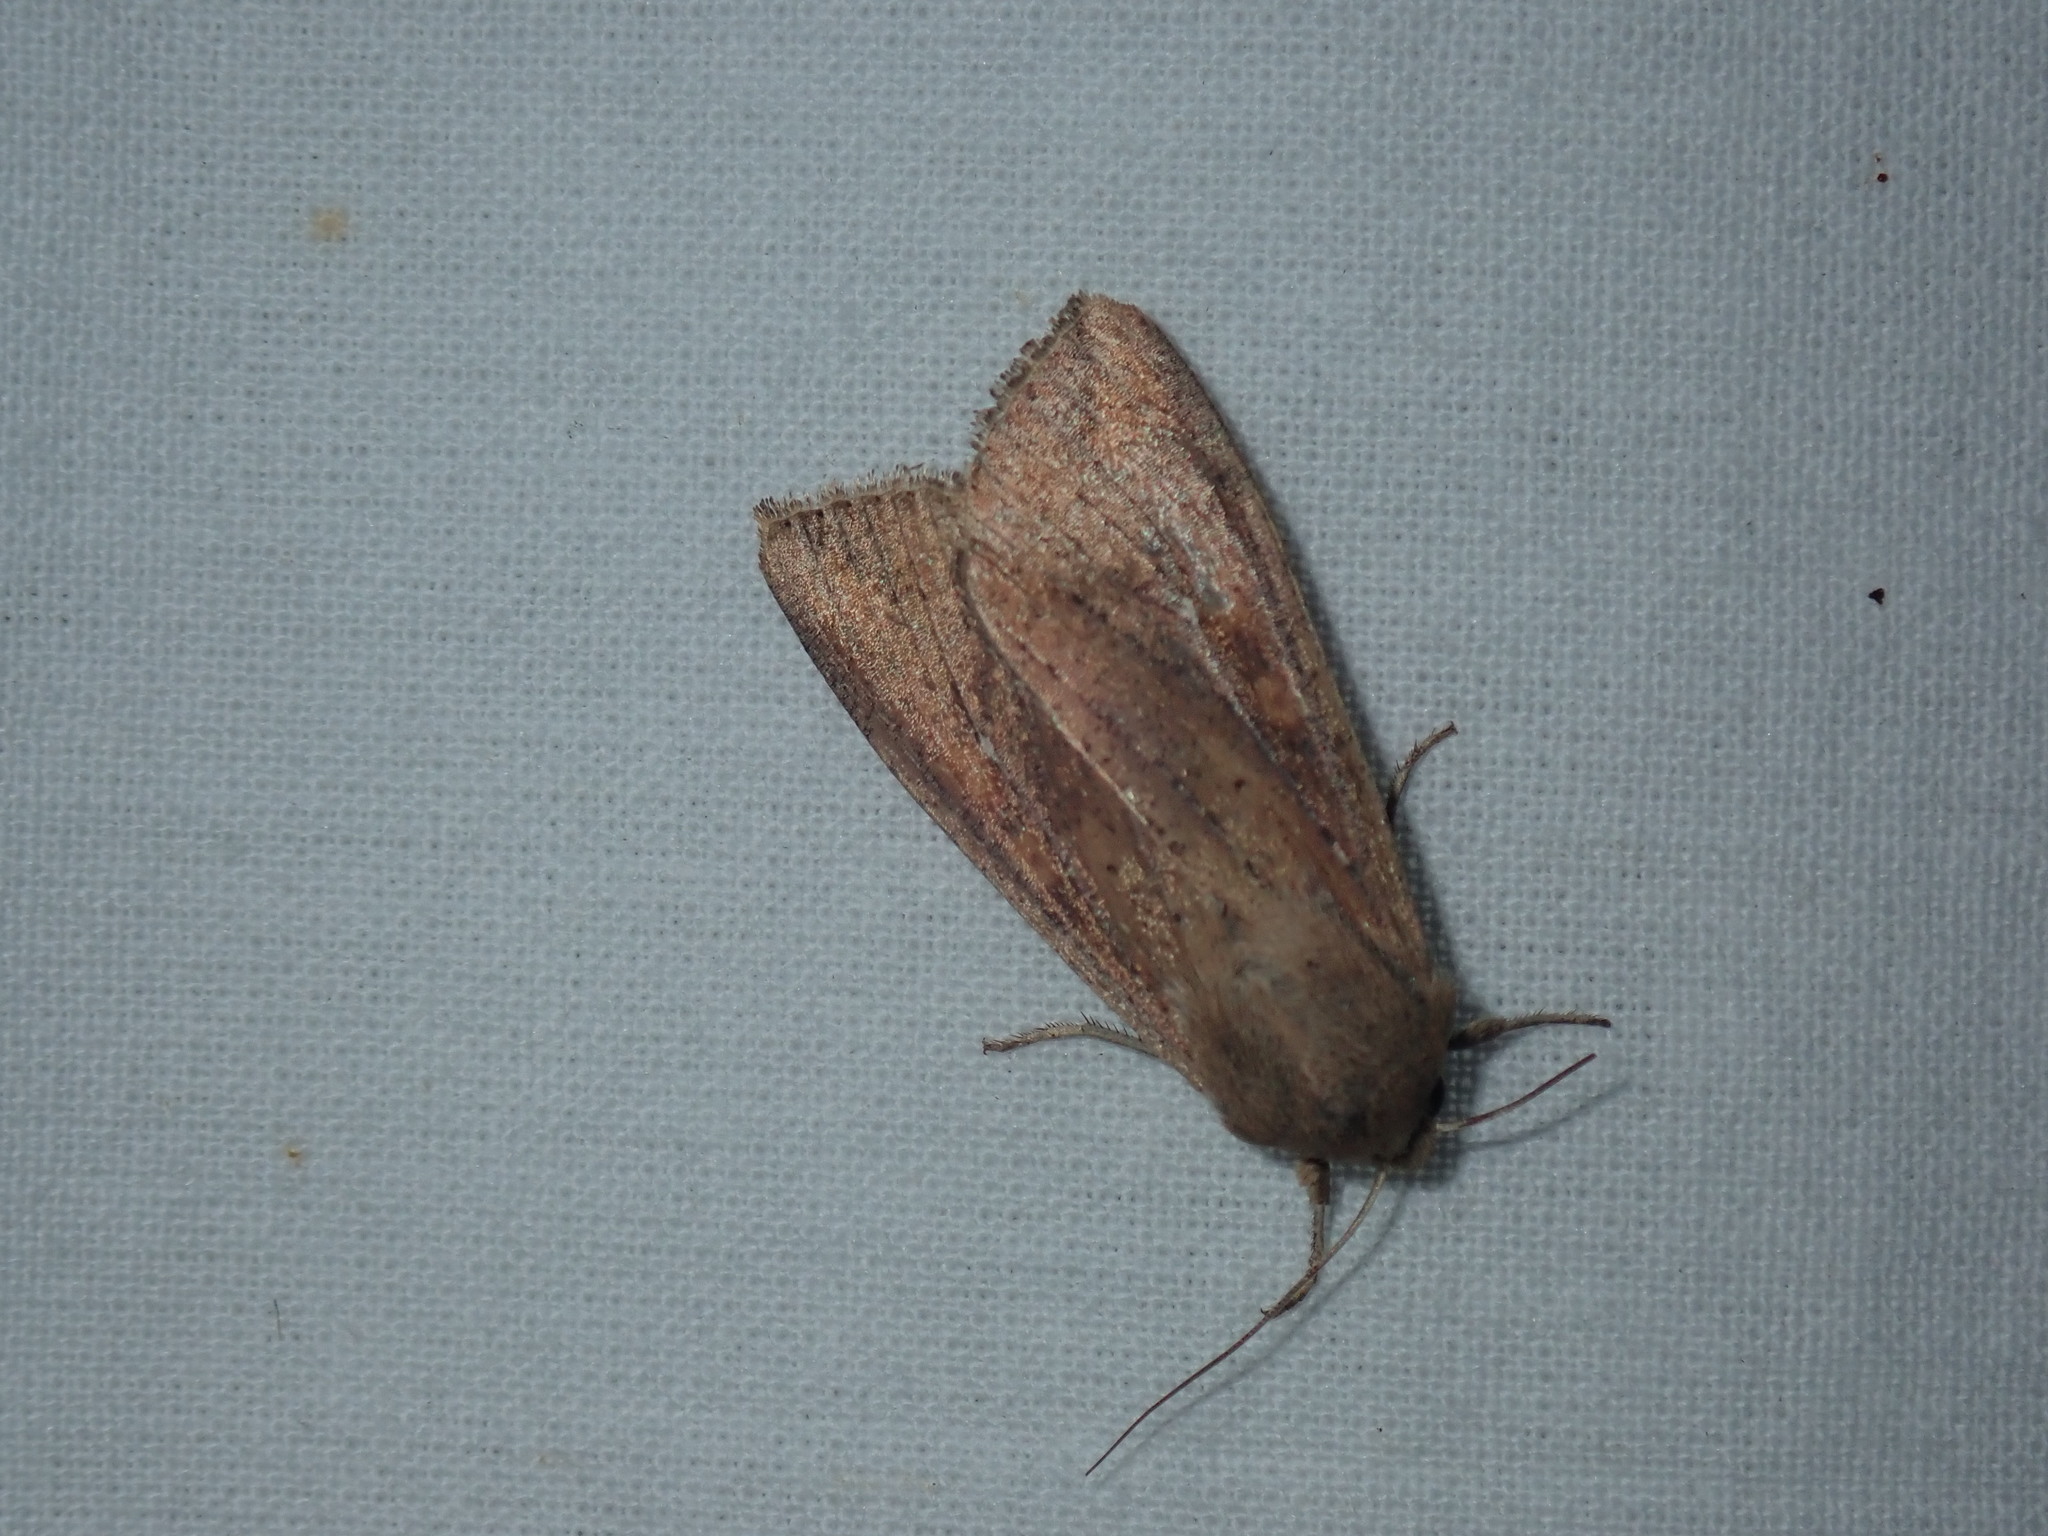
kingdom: Animalia
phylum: Arthropoda
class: Insecta
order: Lepidoptera
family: Noctuidae
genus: Mythimna
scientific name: Mythimna unipuncta
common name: White-speck
